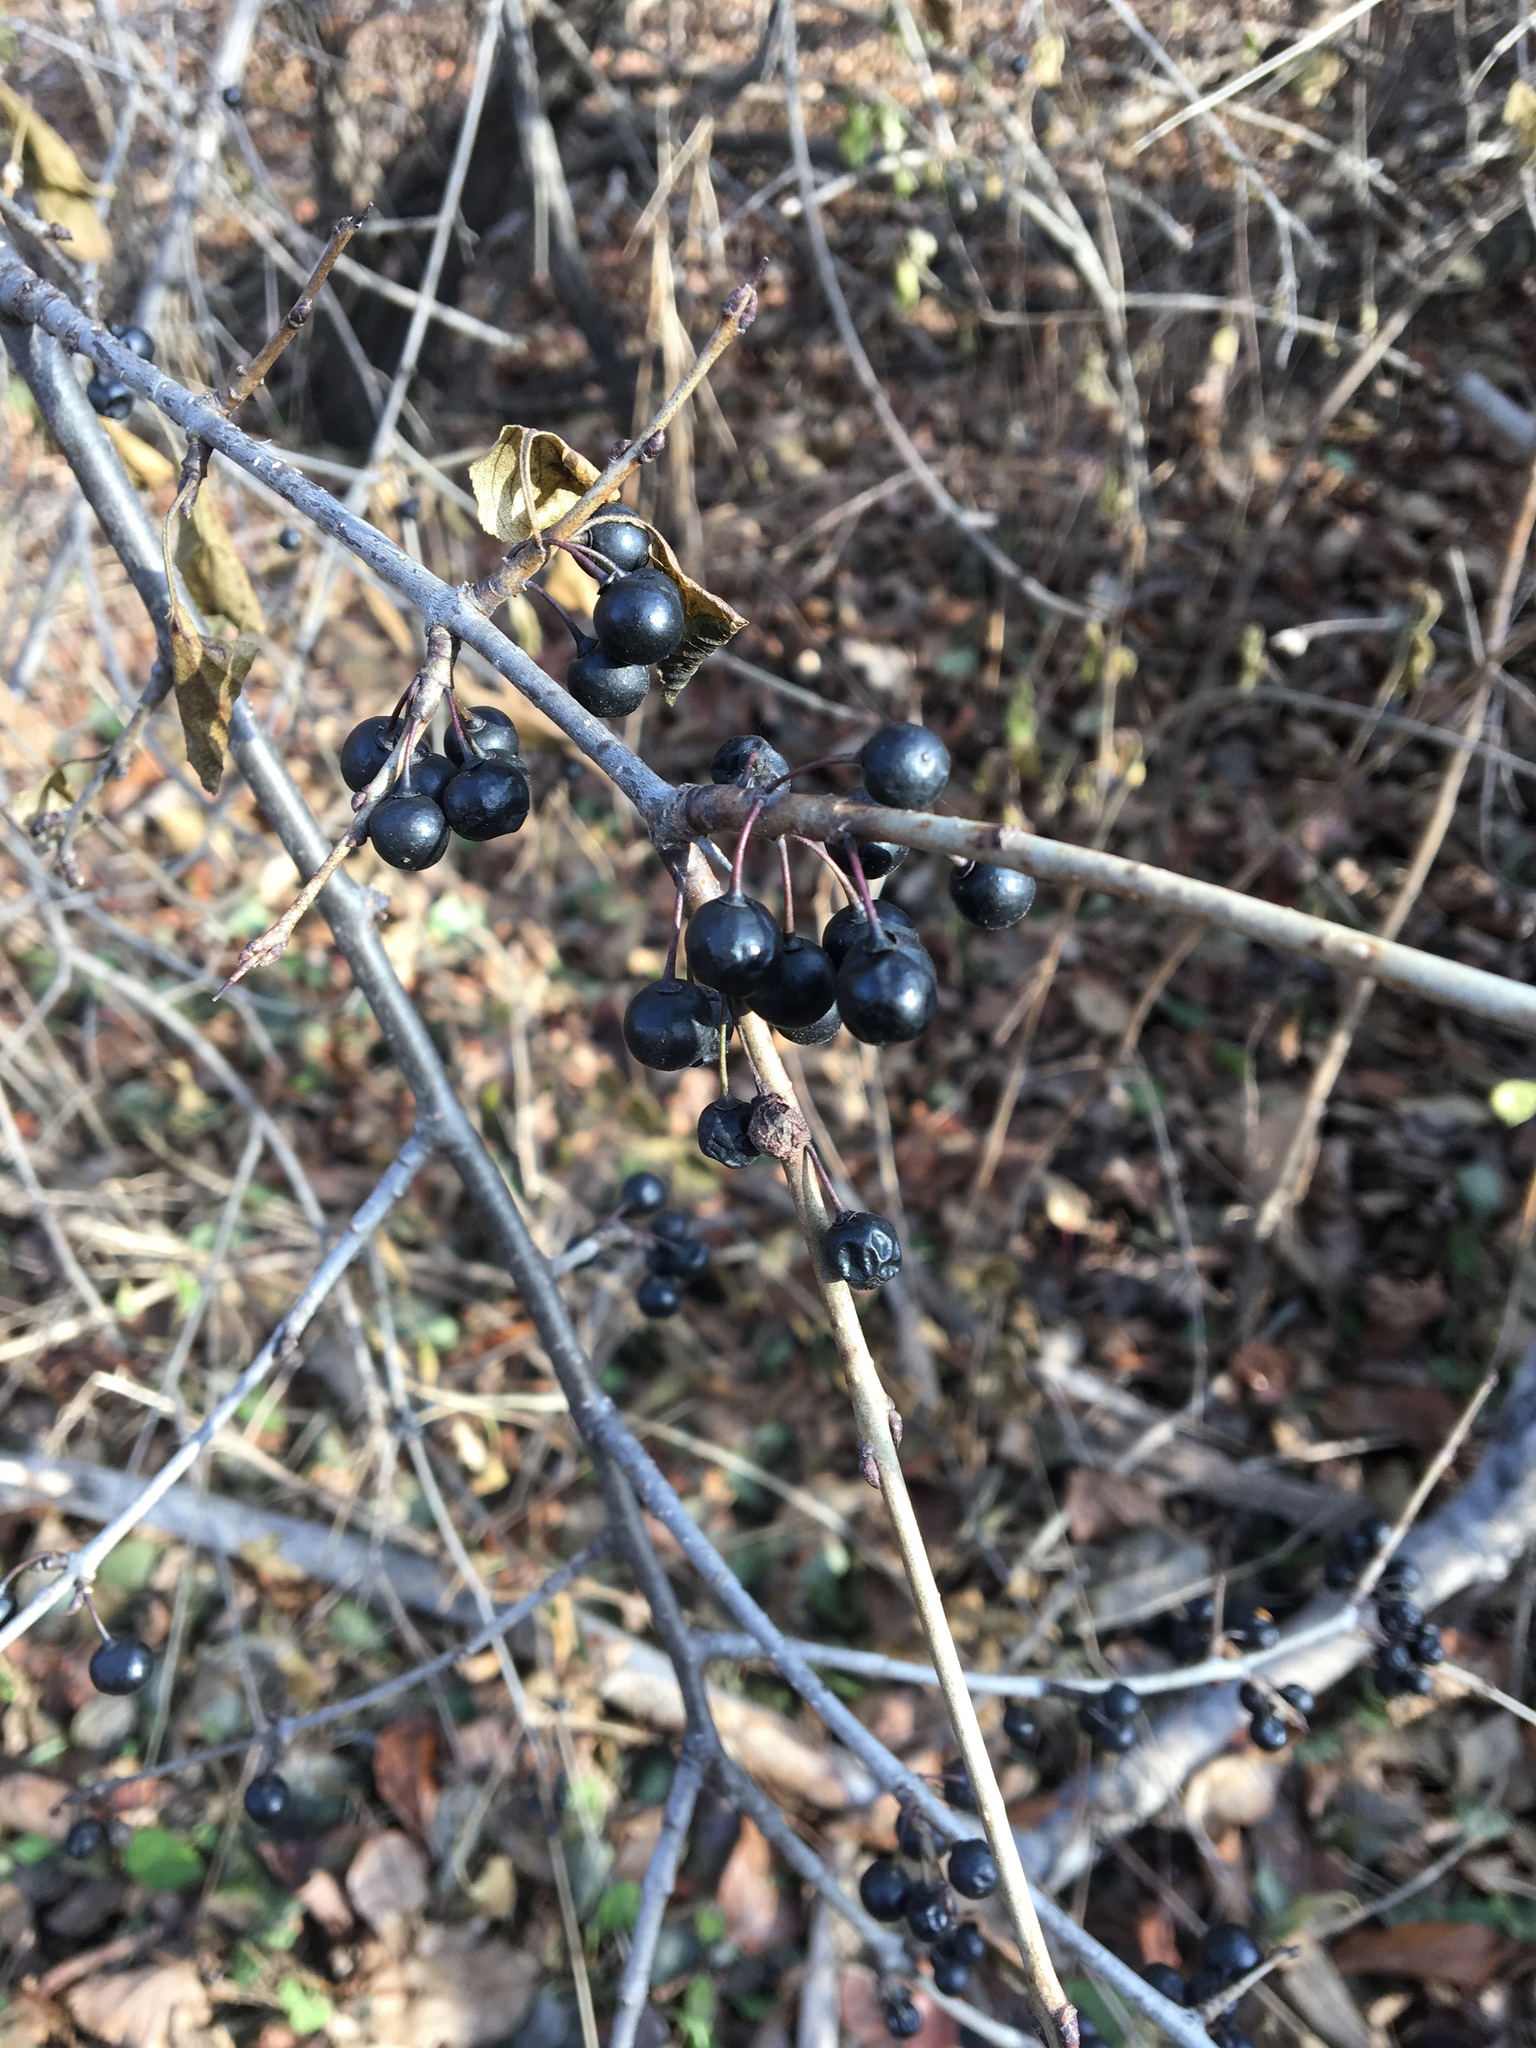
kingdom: Plantae
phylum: Tracheophyta
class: Magnoliopsida
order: Rosales
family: Rhamnaceae
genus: Rhamnus
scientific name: Rhamnus cathartica
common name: Common buckthorn
